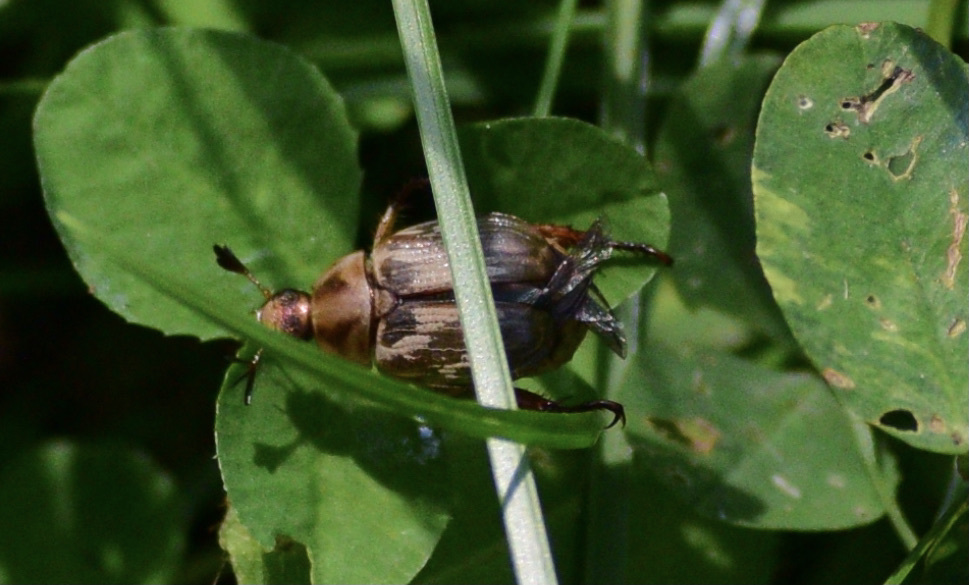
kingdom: Animalia
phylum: Arthropoda
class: Insecta
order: Coleoptera
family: Scarabaeidae
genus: Exomala
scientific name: Exomala orientalis
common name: Oriental beetle
